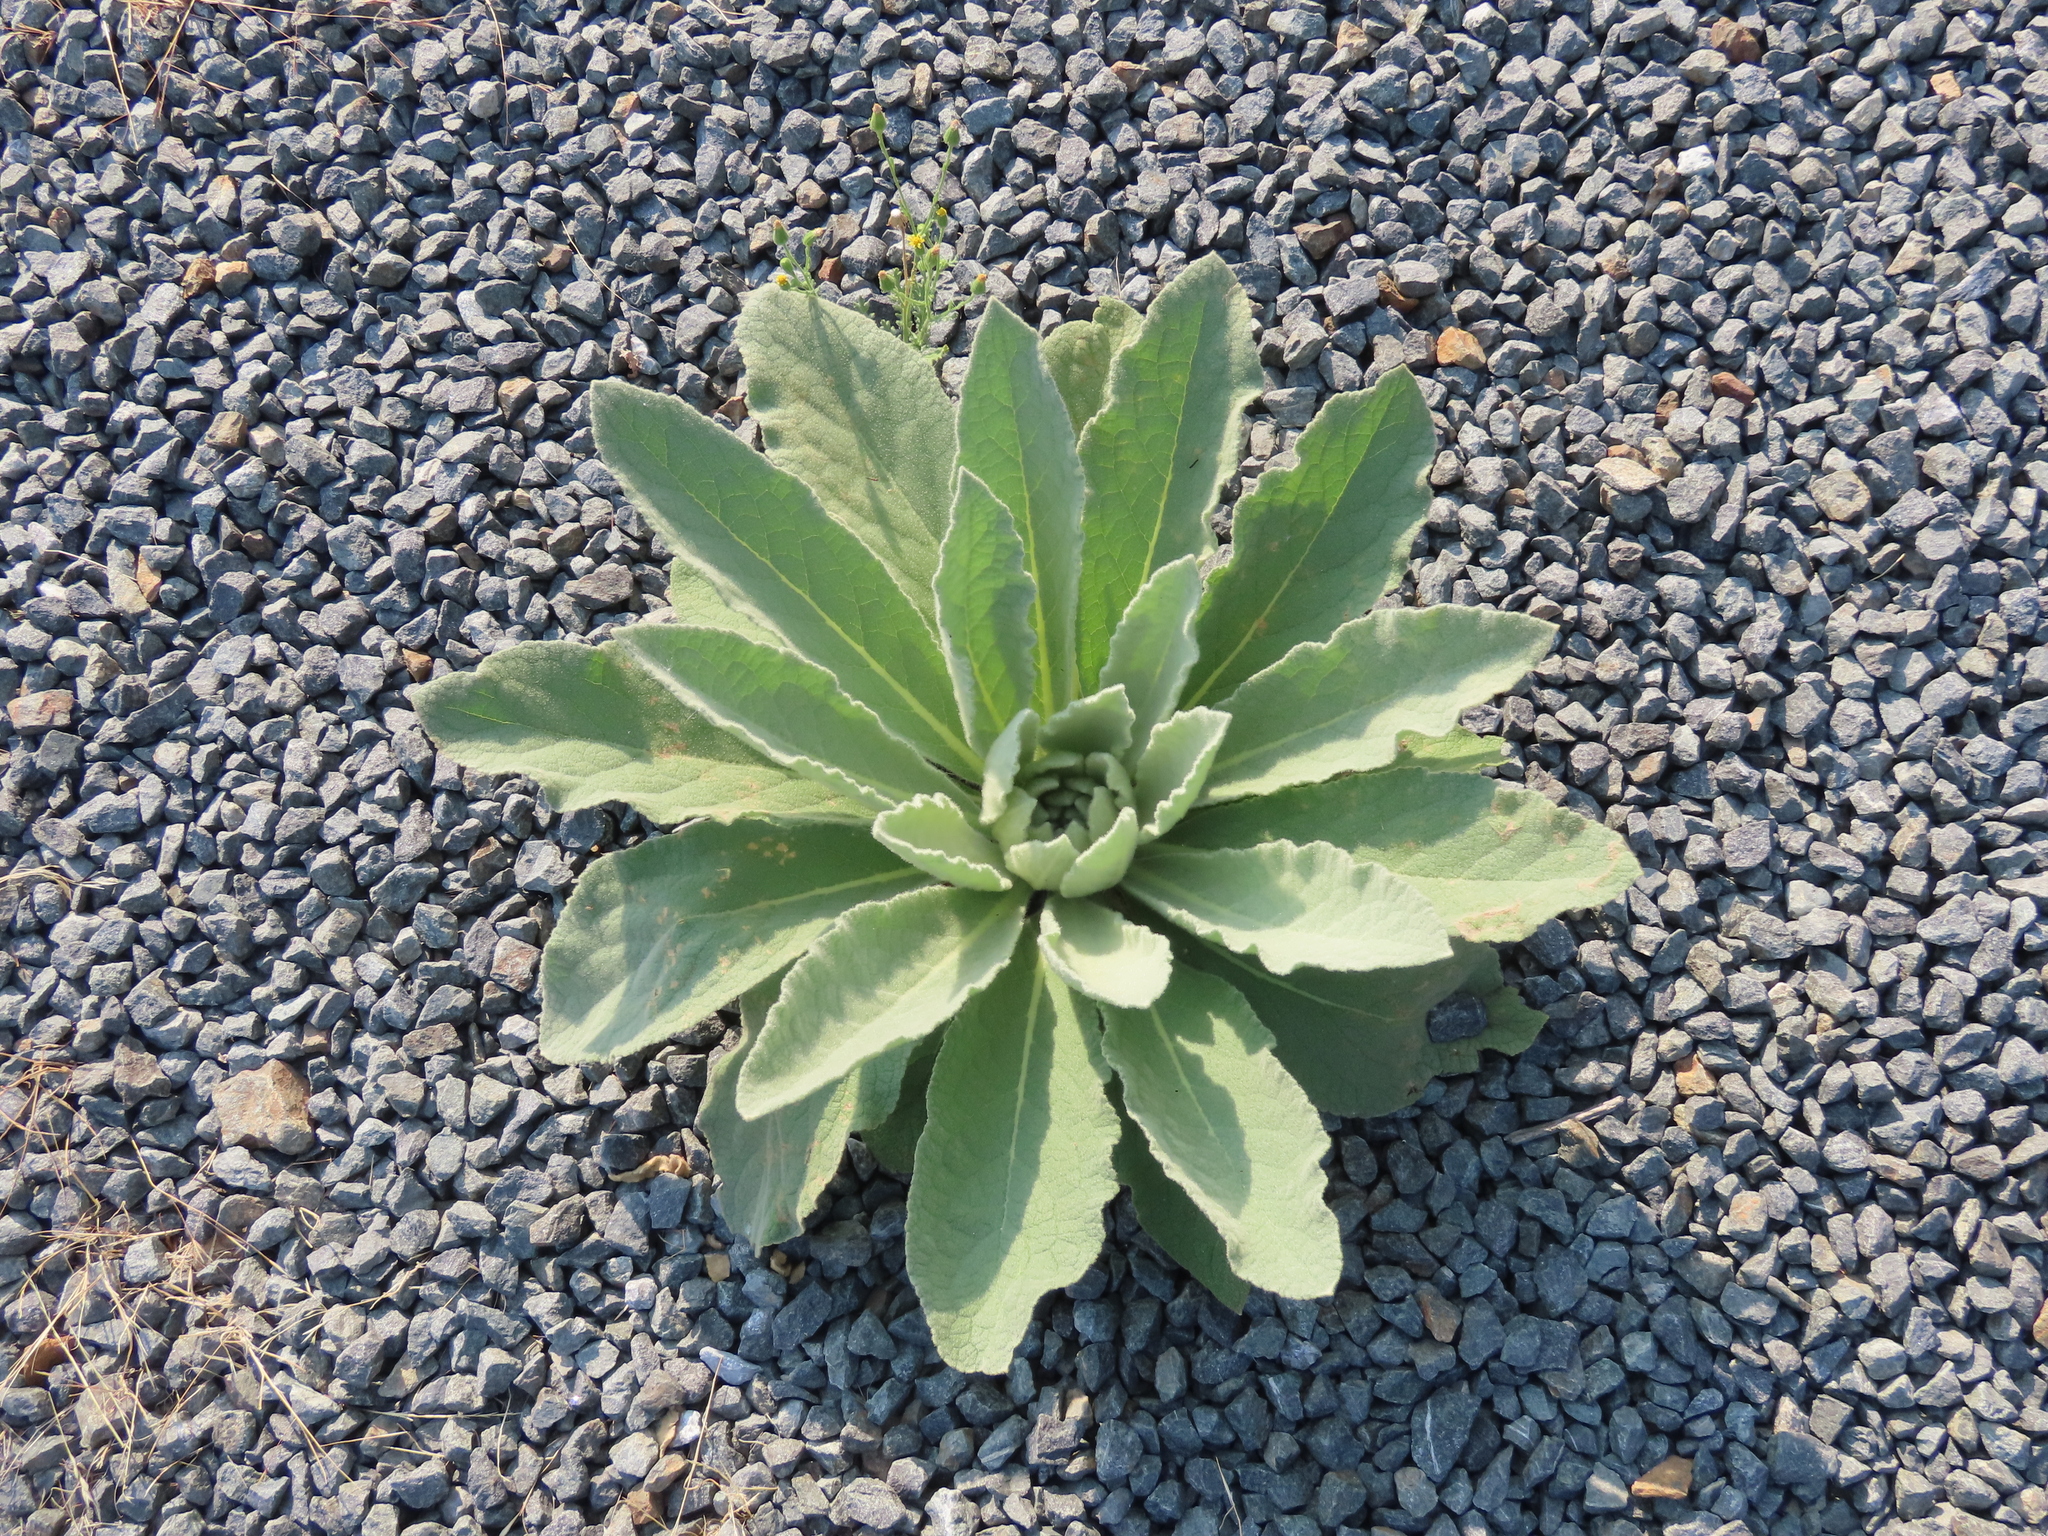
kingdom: Plantae
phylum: Tracheophyta
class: Magnoliopsida
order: Lamiales
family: Scrophulariaceae
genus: Verbascum
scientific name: Verbascum thapsus
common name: Common mullein
